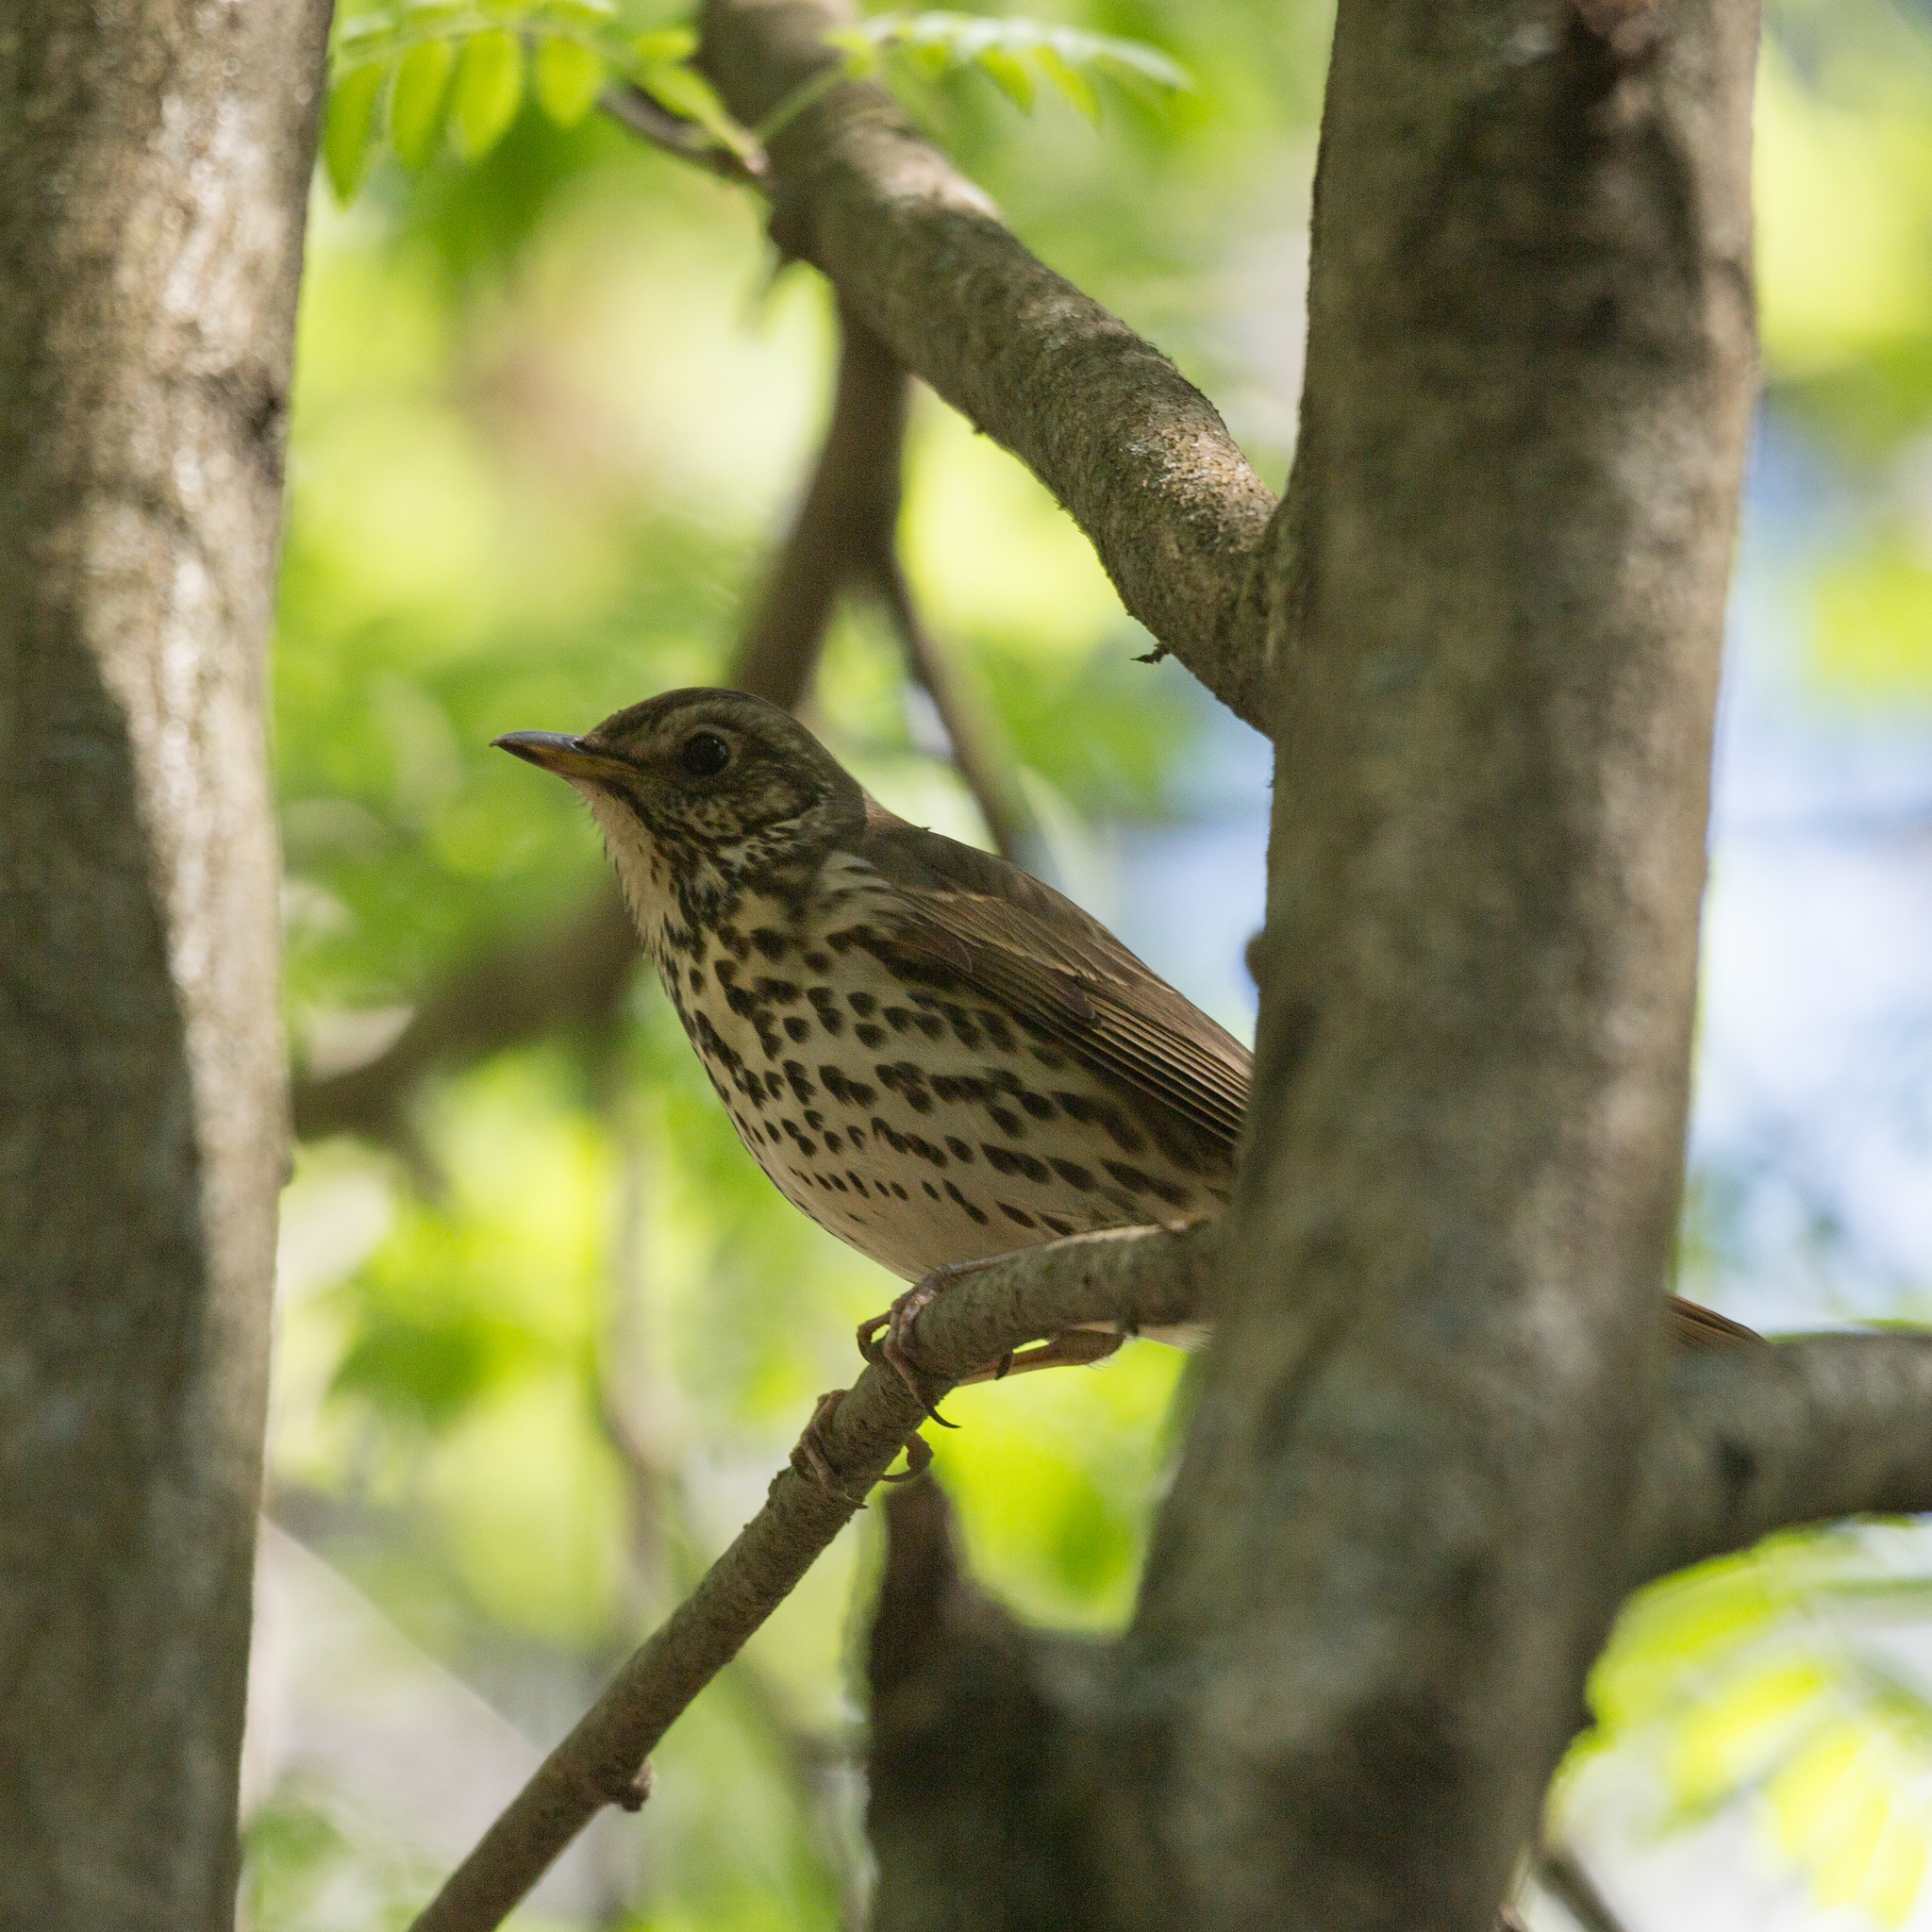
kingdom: Animalia
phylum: Chordata
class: Aves
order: Passeriformes
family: Turdidae
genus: Turdus
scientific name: Turdus philomelos
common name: Song thrush
